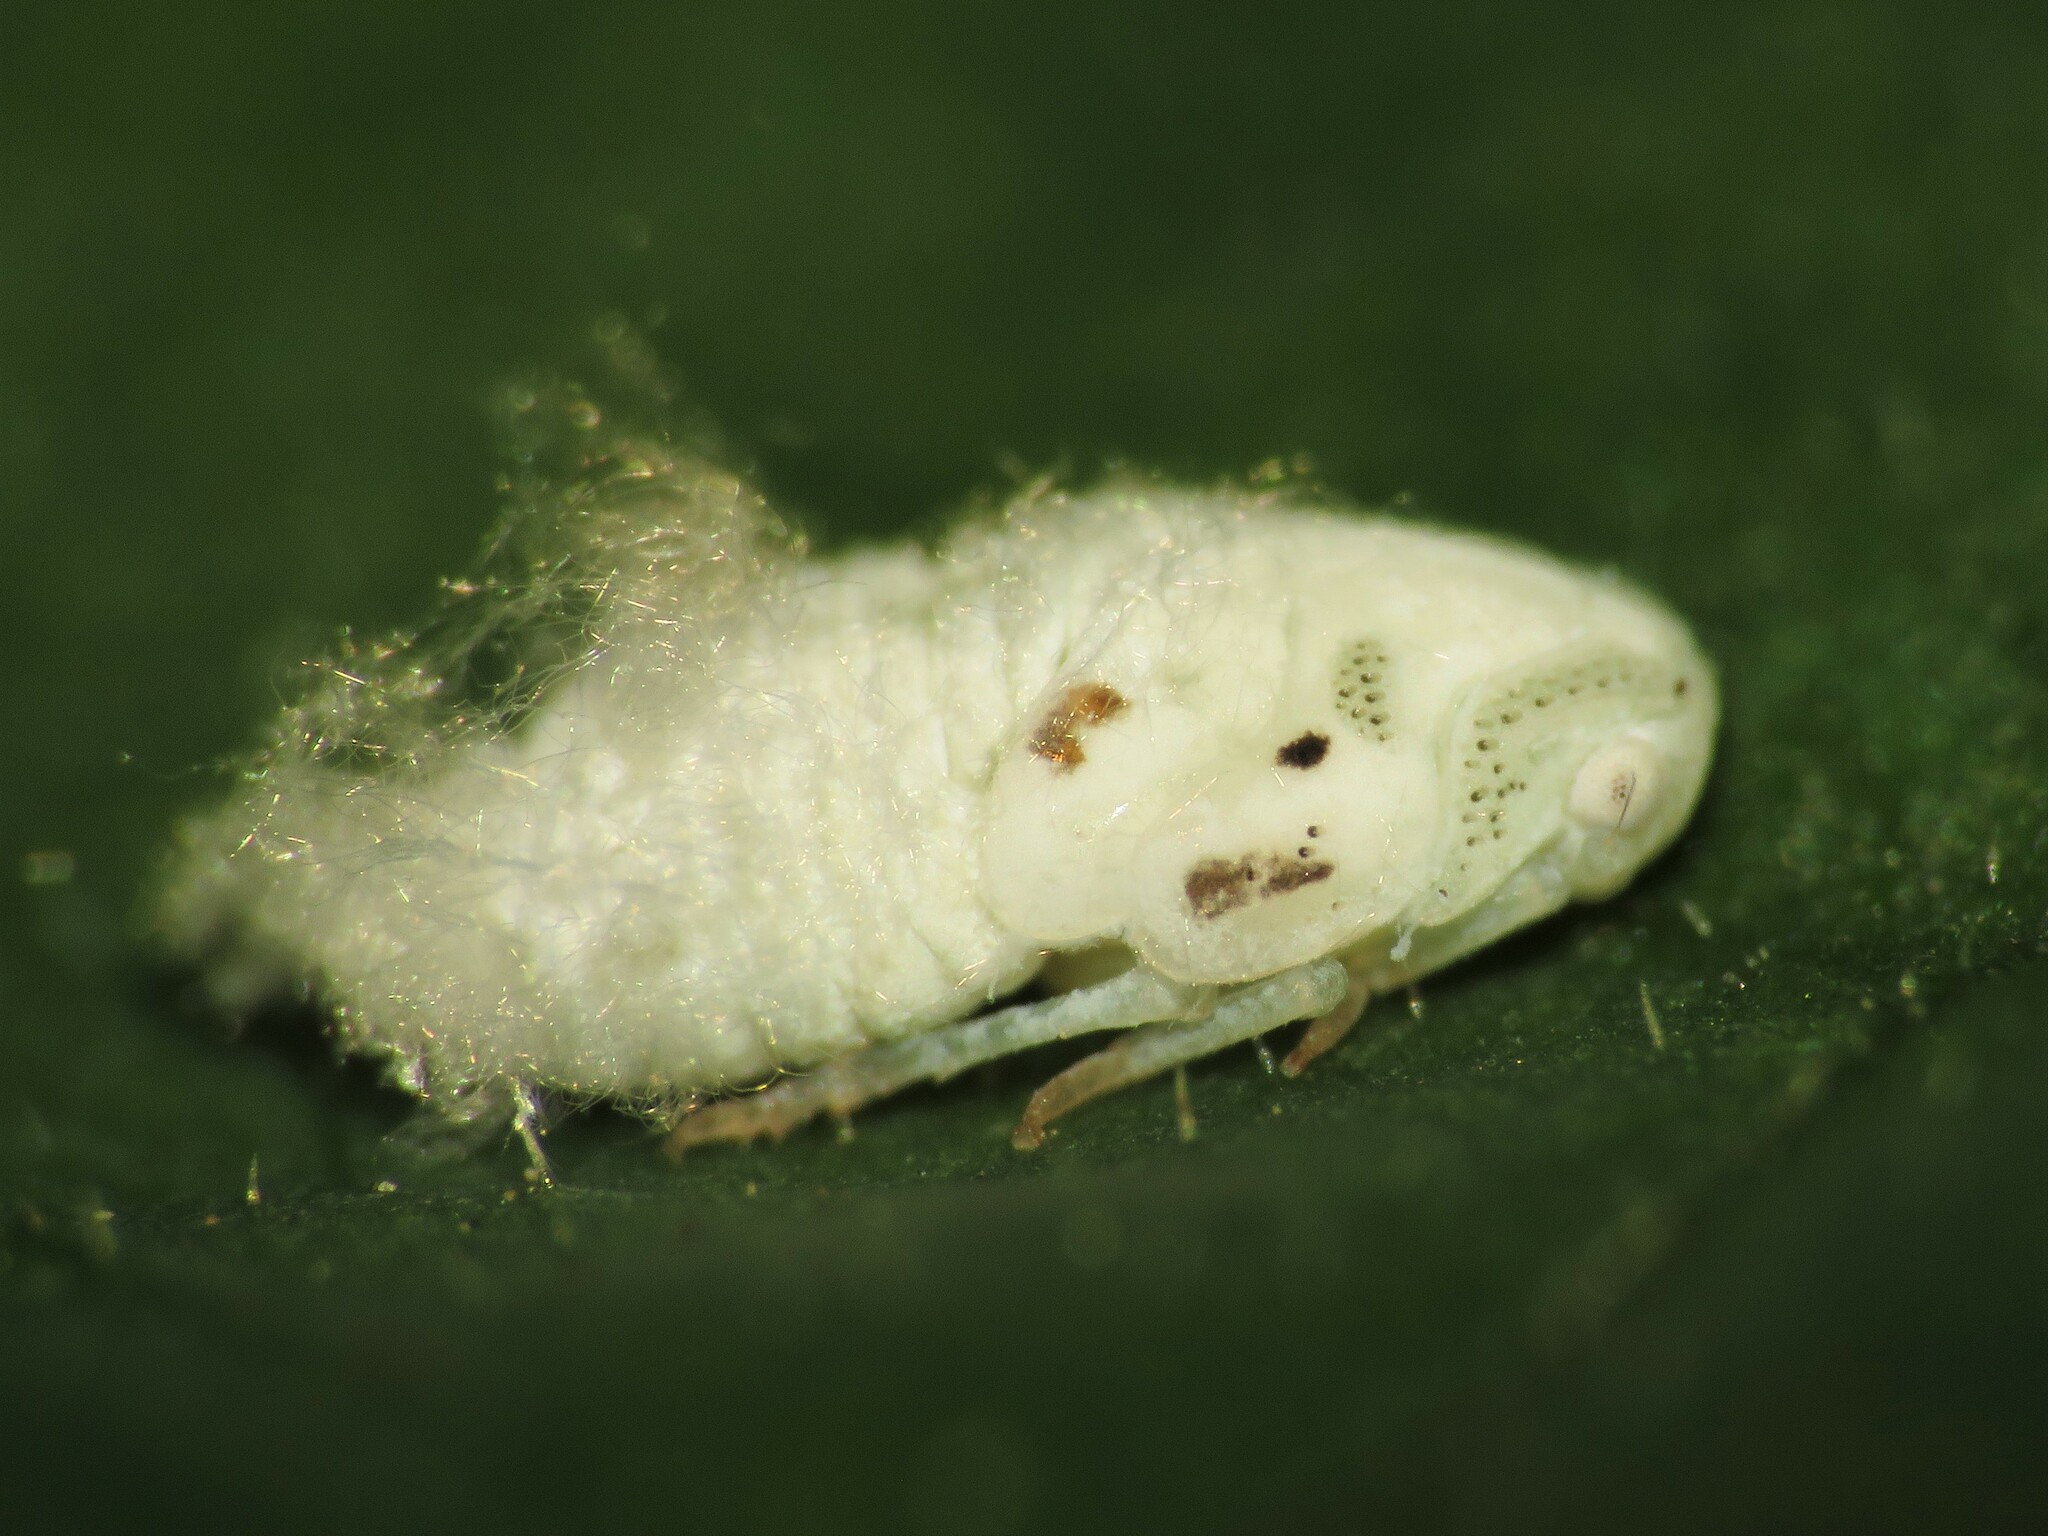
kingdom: Animalia
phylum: Arthropoda
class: Insecta
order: Hemiptera
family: Flatidae
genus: Flatormenis
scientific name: Flatormenis proxima
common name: Northern flatid planthopper
